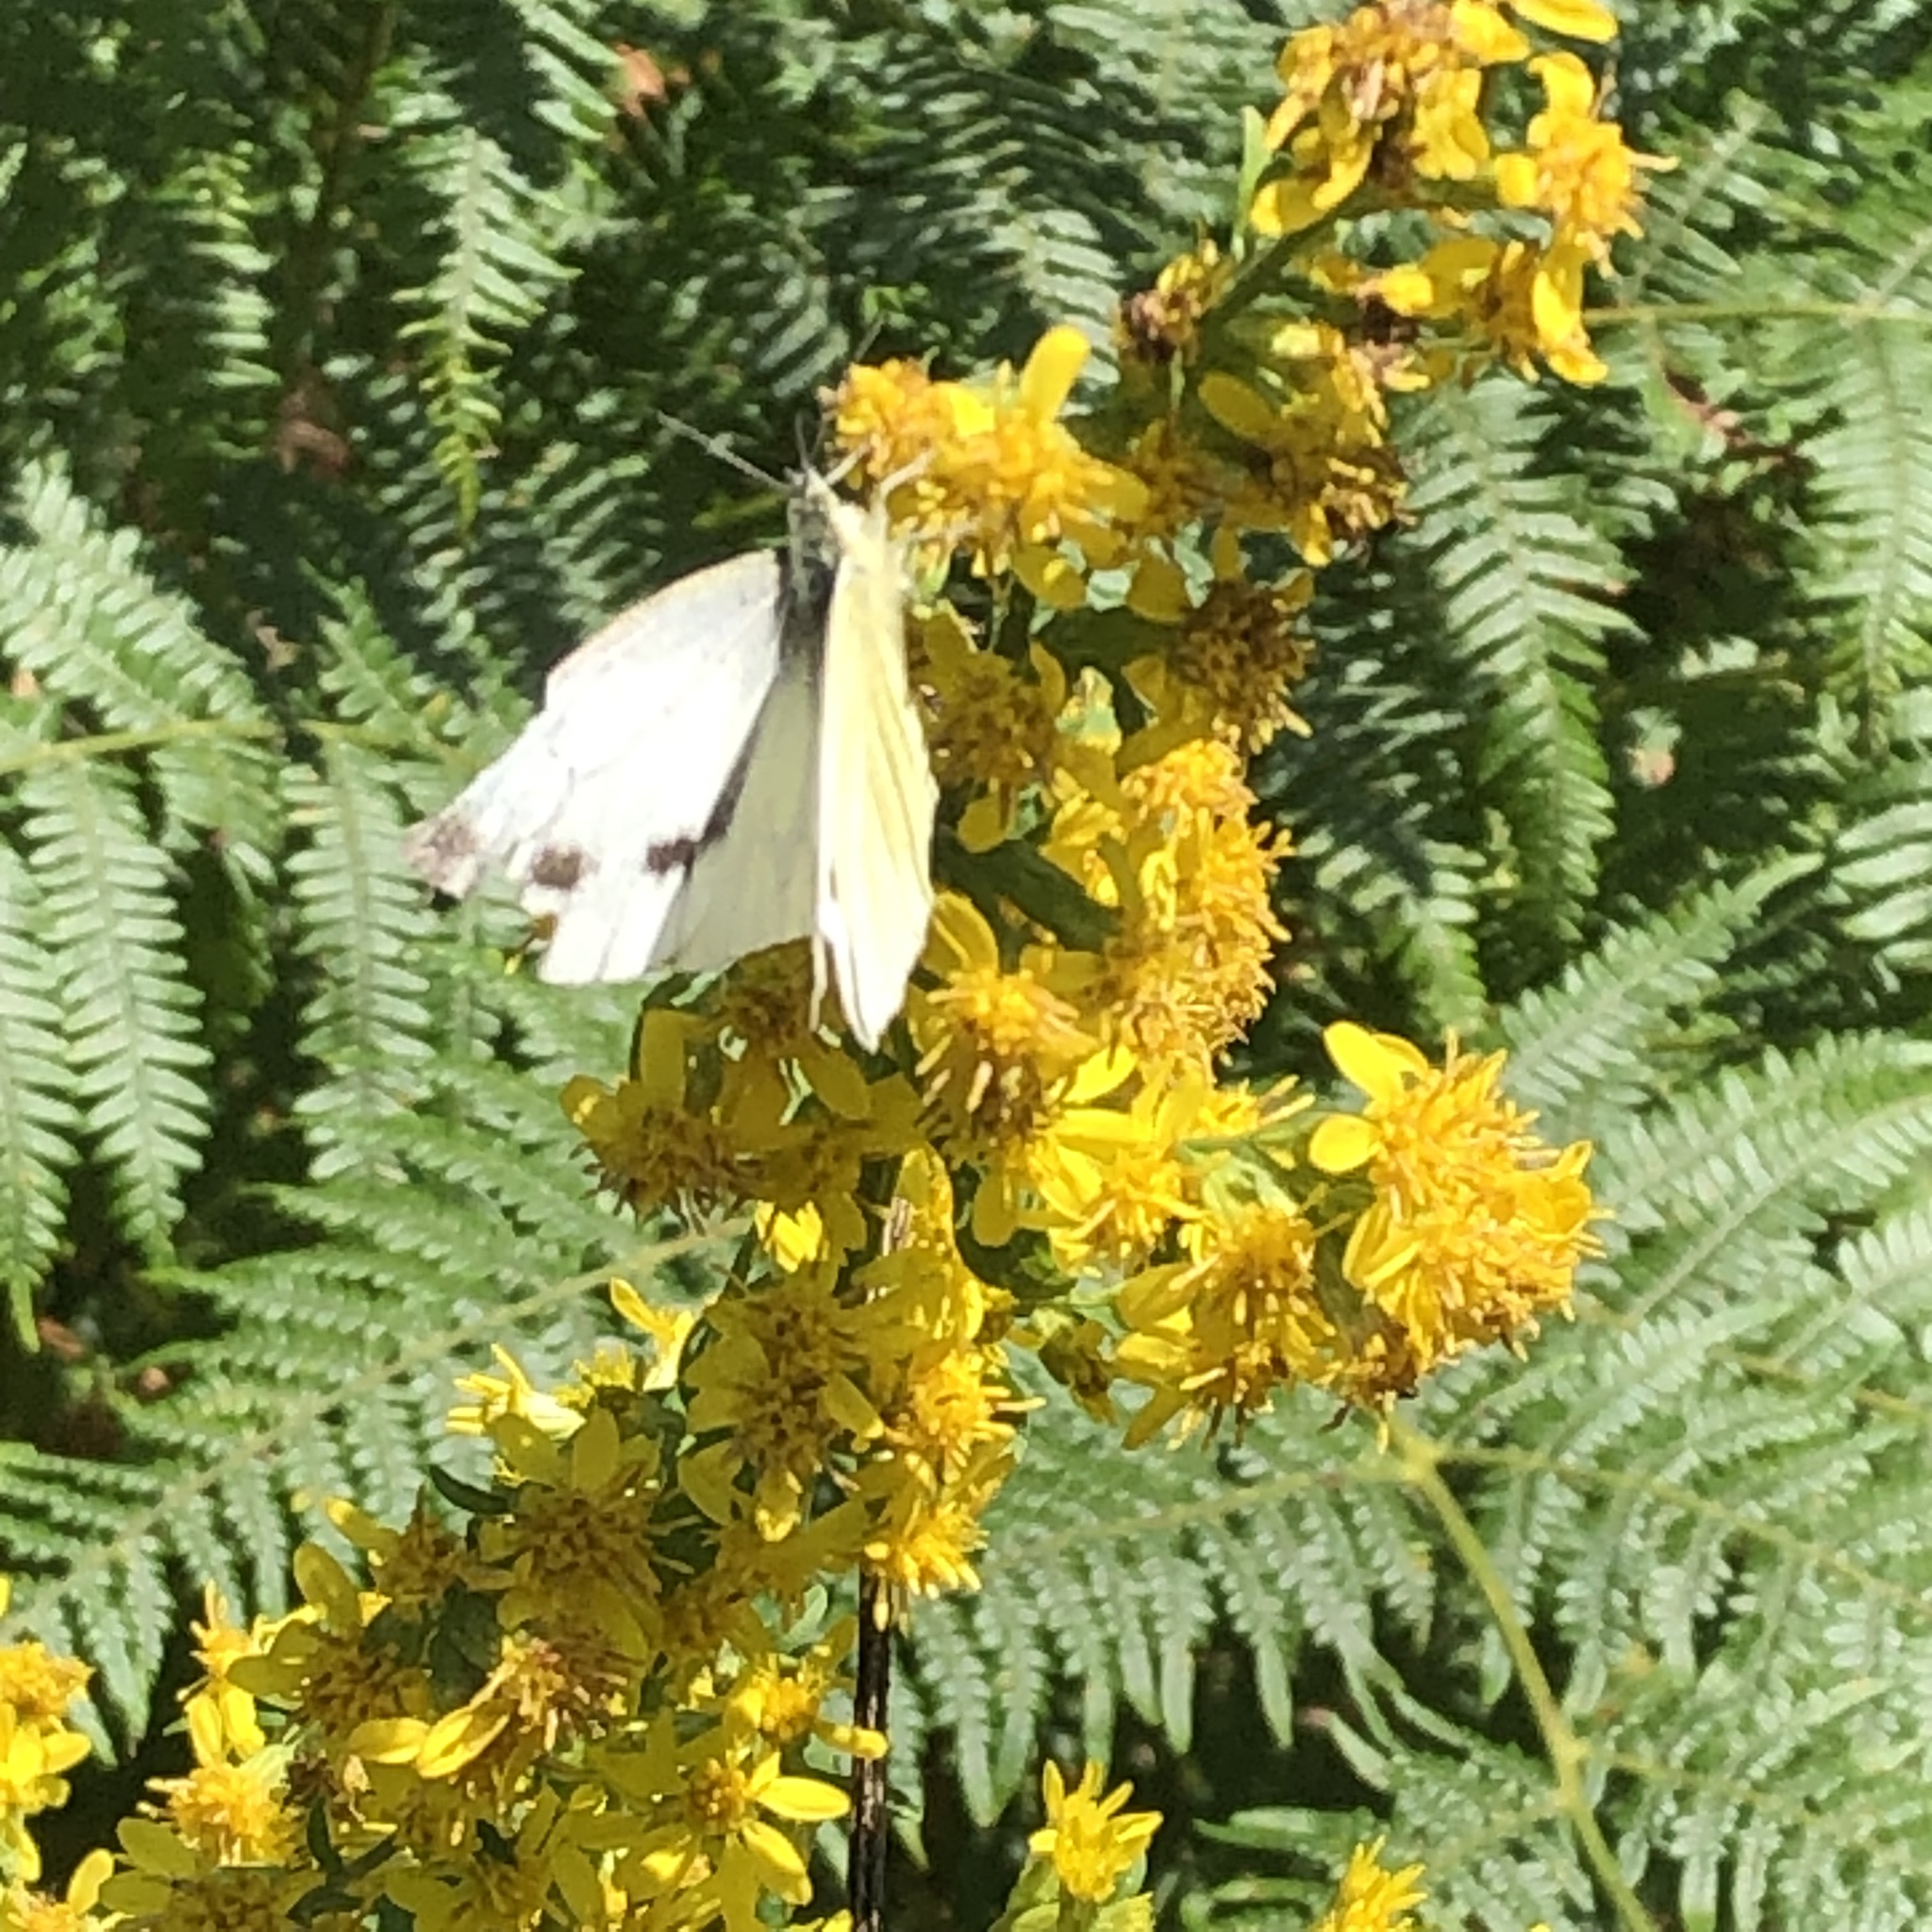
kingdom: Animalia
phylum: Arthropoda
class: Insecta
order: Lepidoptera
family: Pieridae
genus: Pieris
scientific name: Pieris napi
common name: Green-veined white
